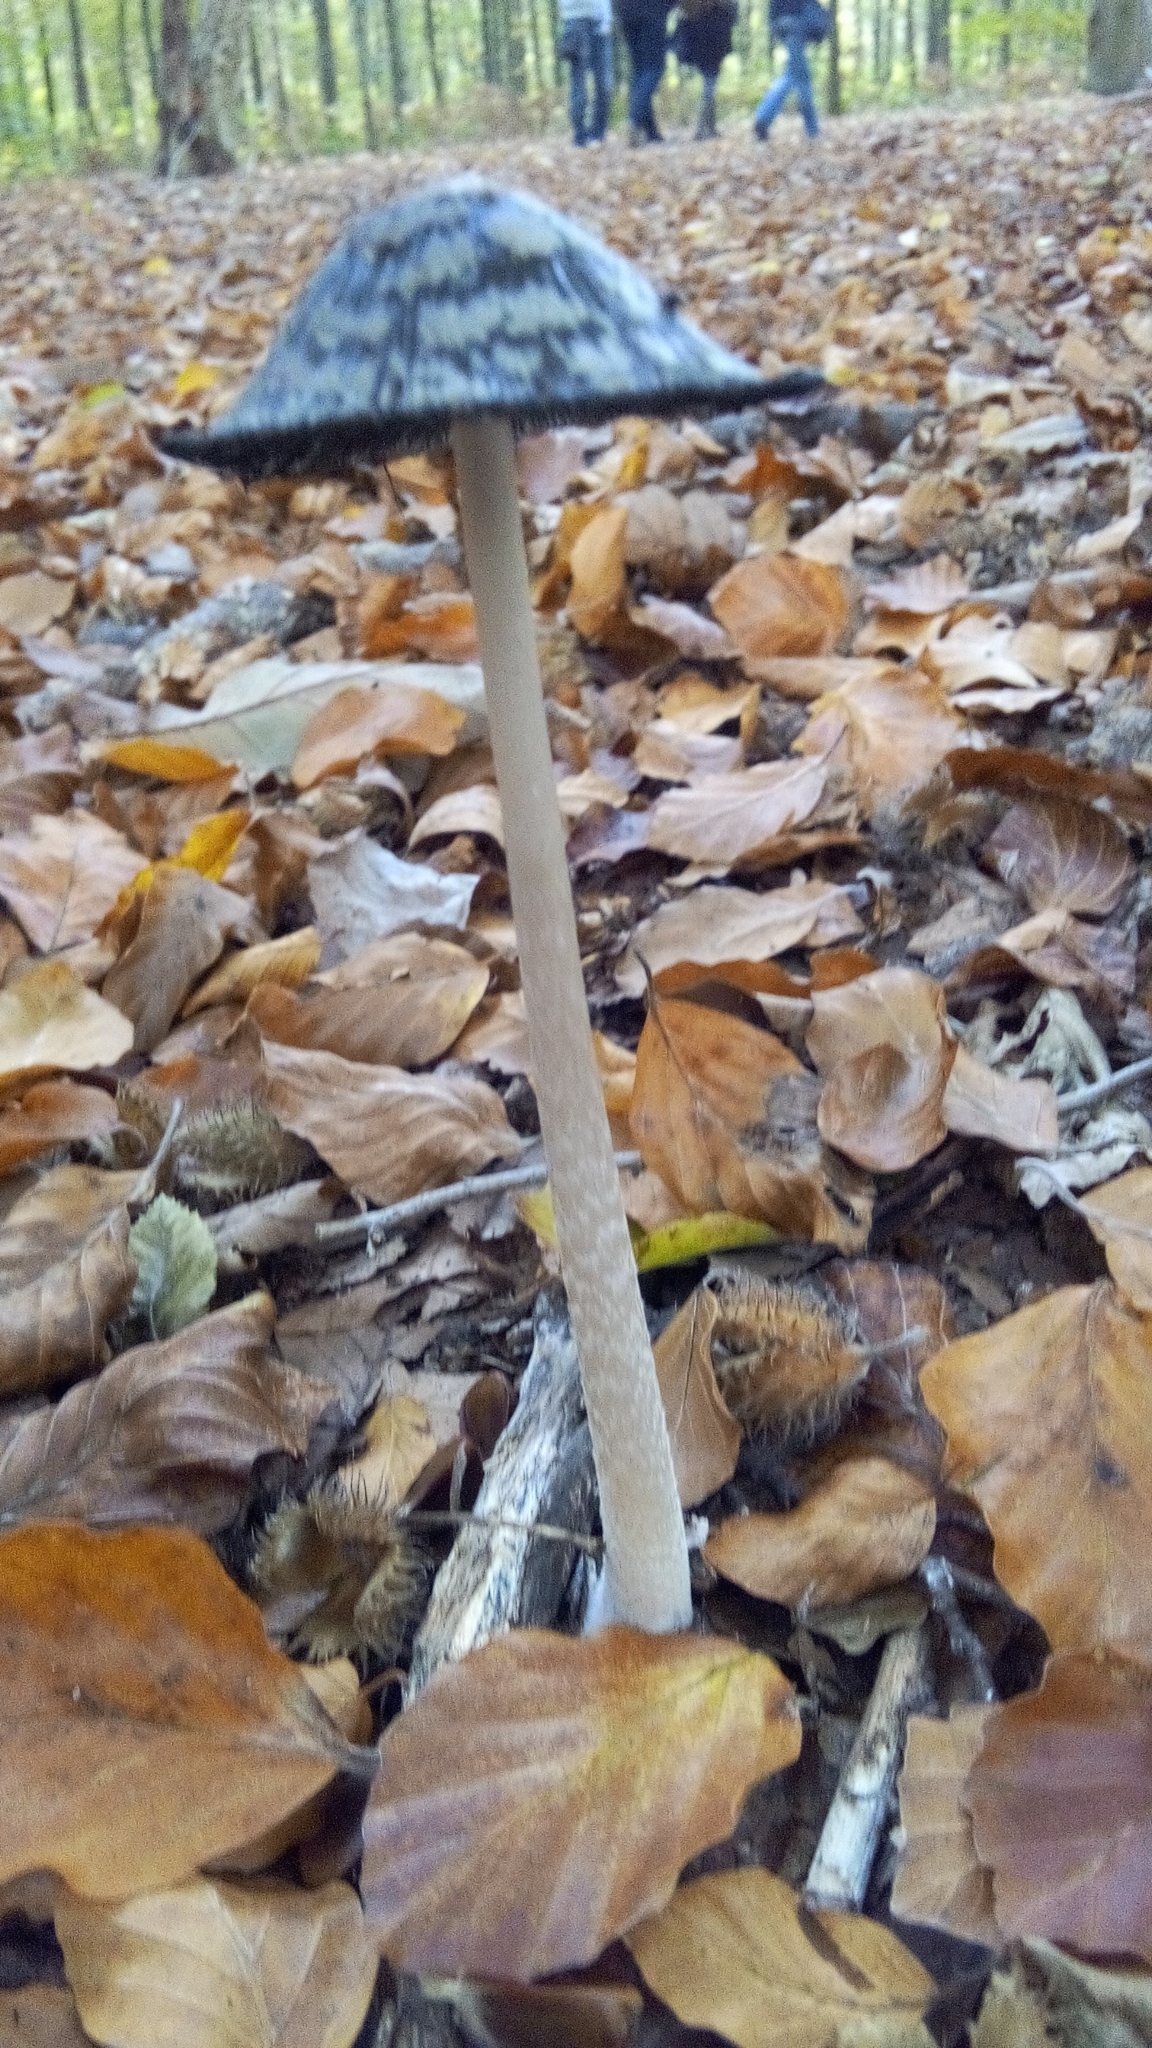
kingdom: Fungi
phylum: Basidiomycota
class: Agaricomycetes
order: Agaricales
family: Psathyrellaceae
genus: Coprinopsis
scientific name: Coprinopsis picacea
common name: Magpie inkcap
